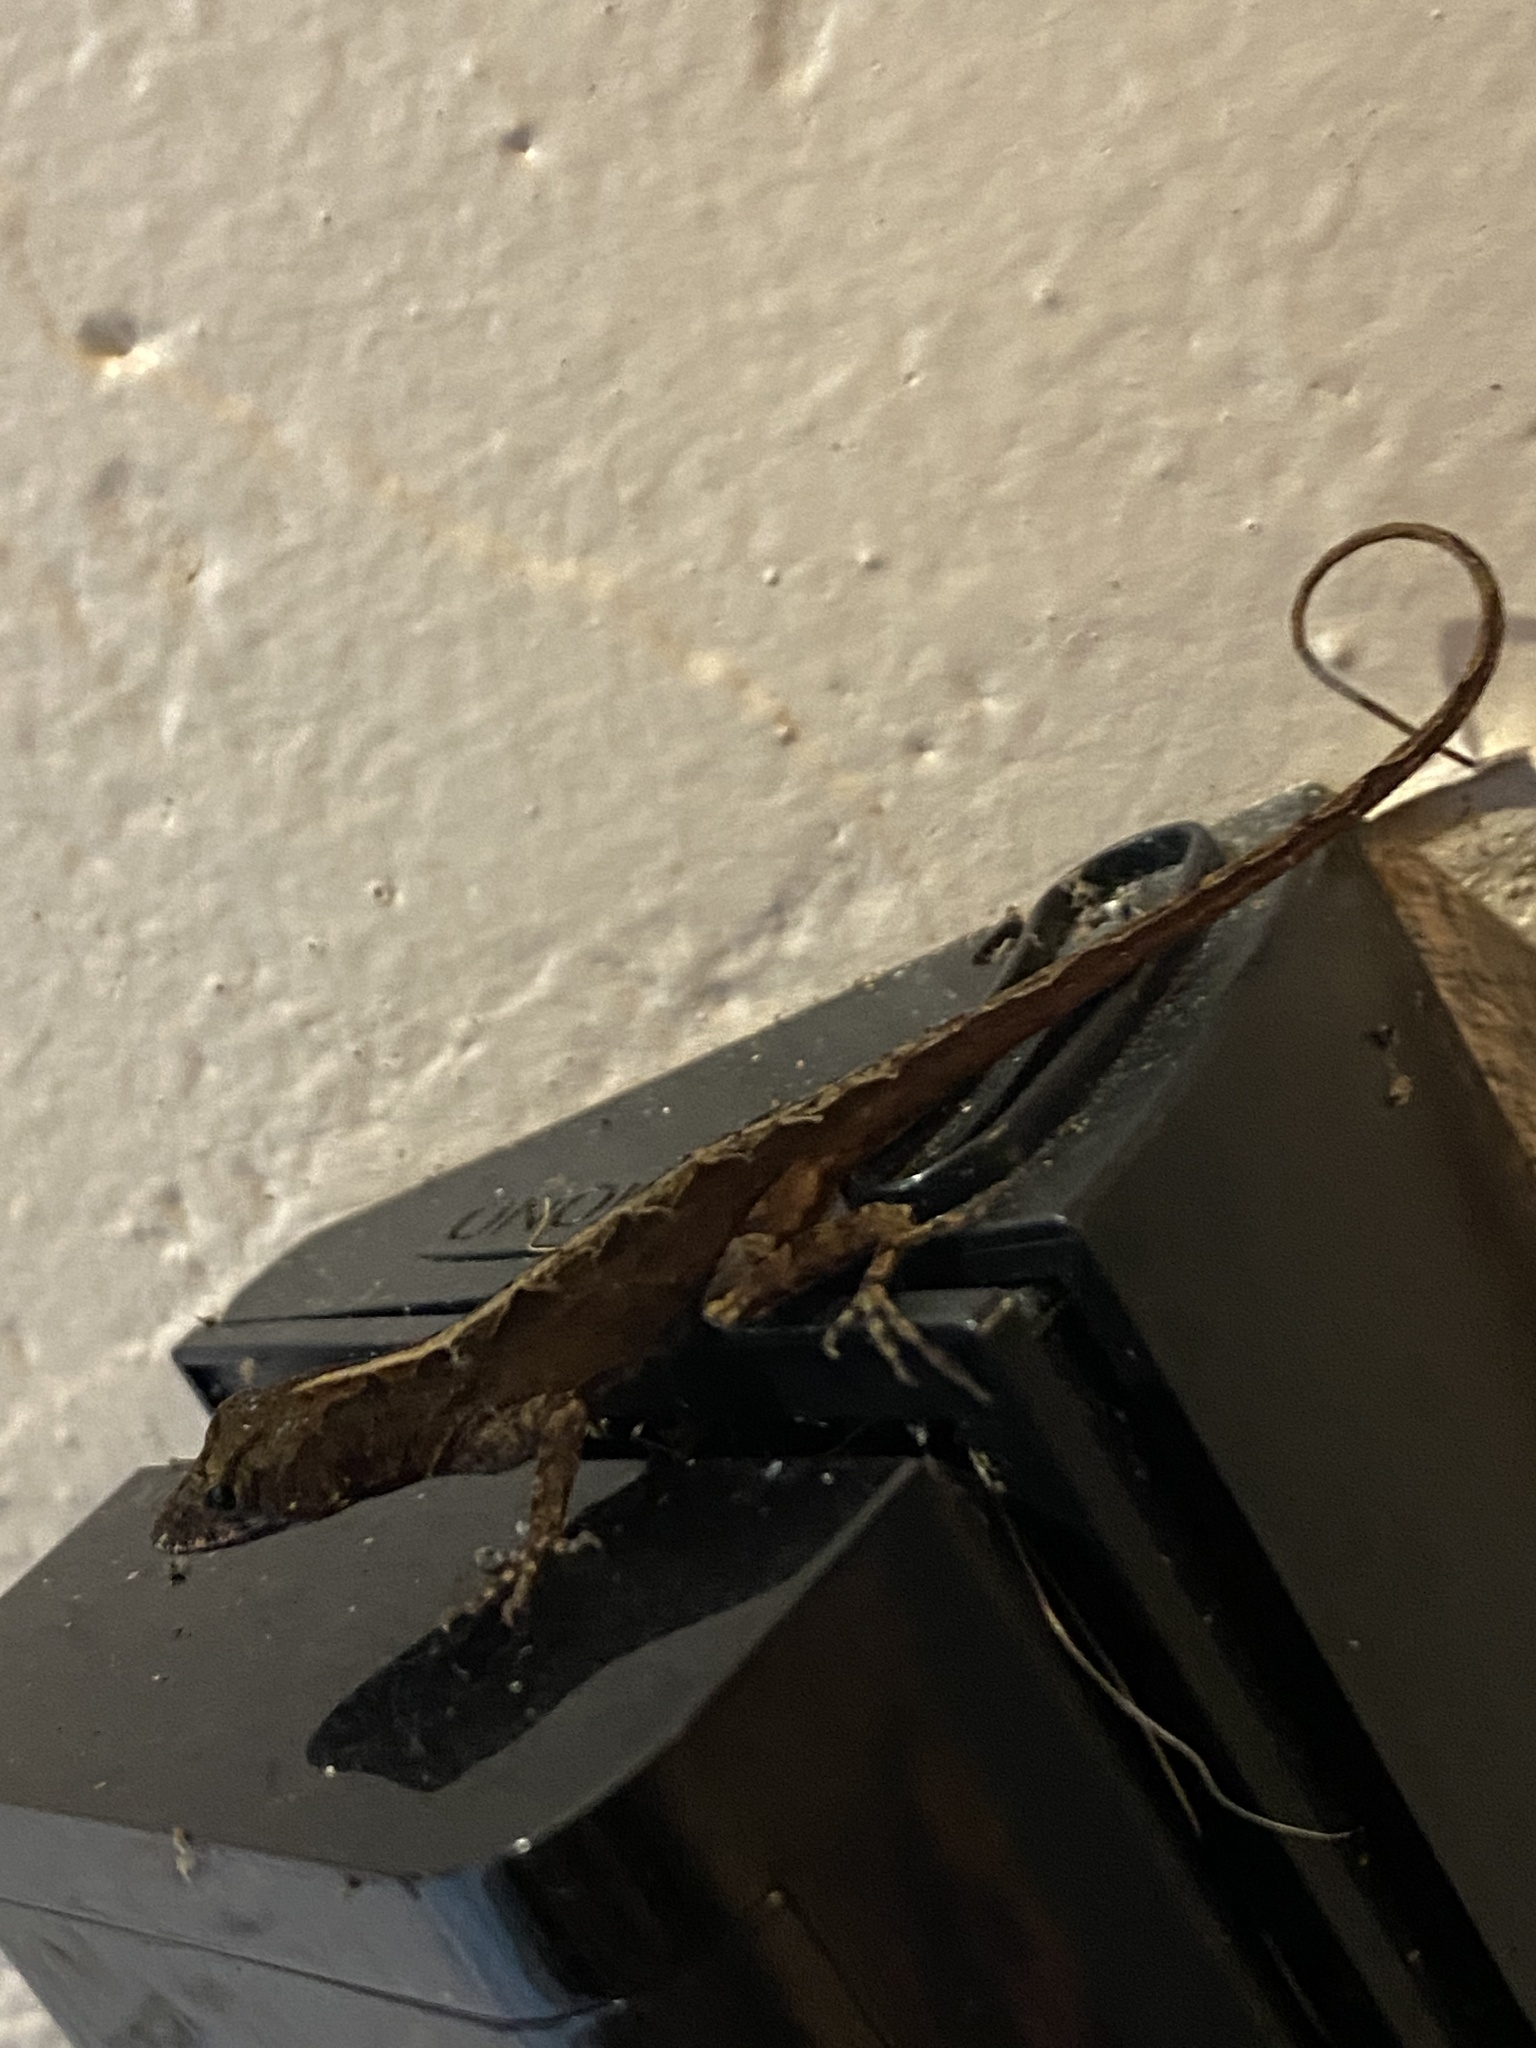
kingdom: Animalia
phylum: Chordata
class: Squamata
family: Dactyloidae
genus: Anolis
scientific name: Anolis sagrei
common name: Brown anole
